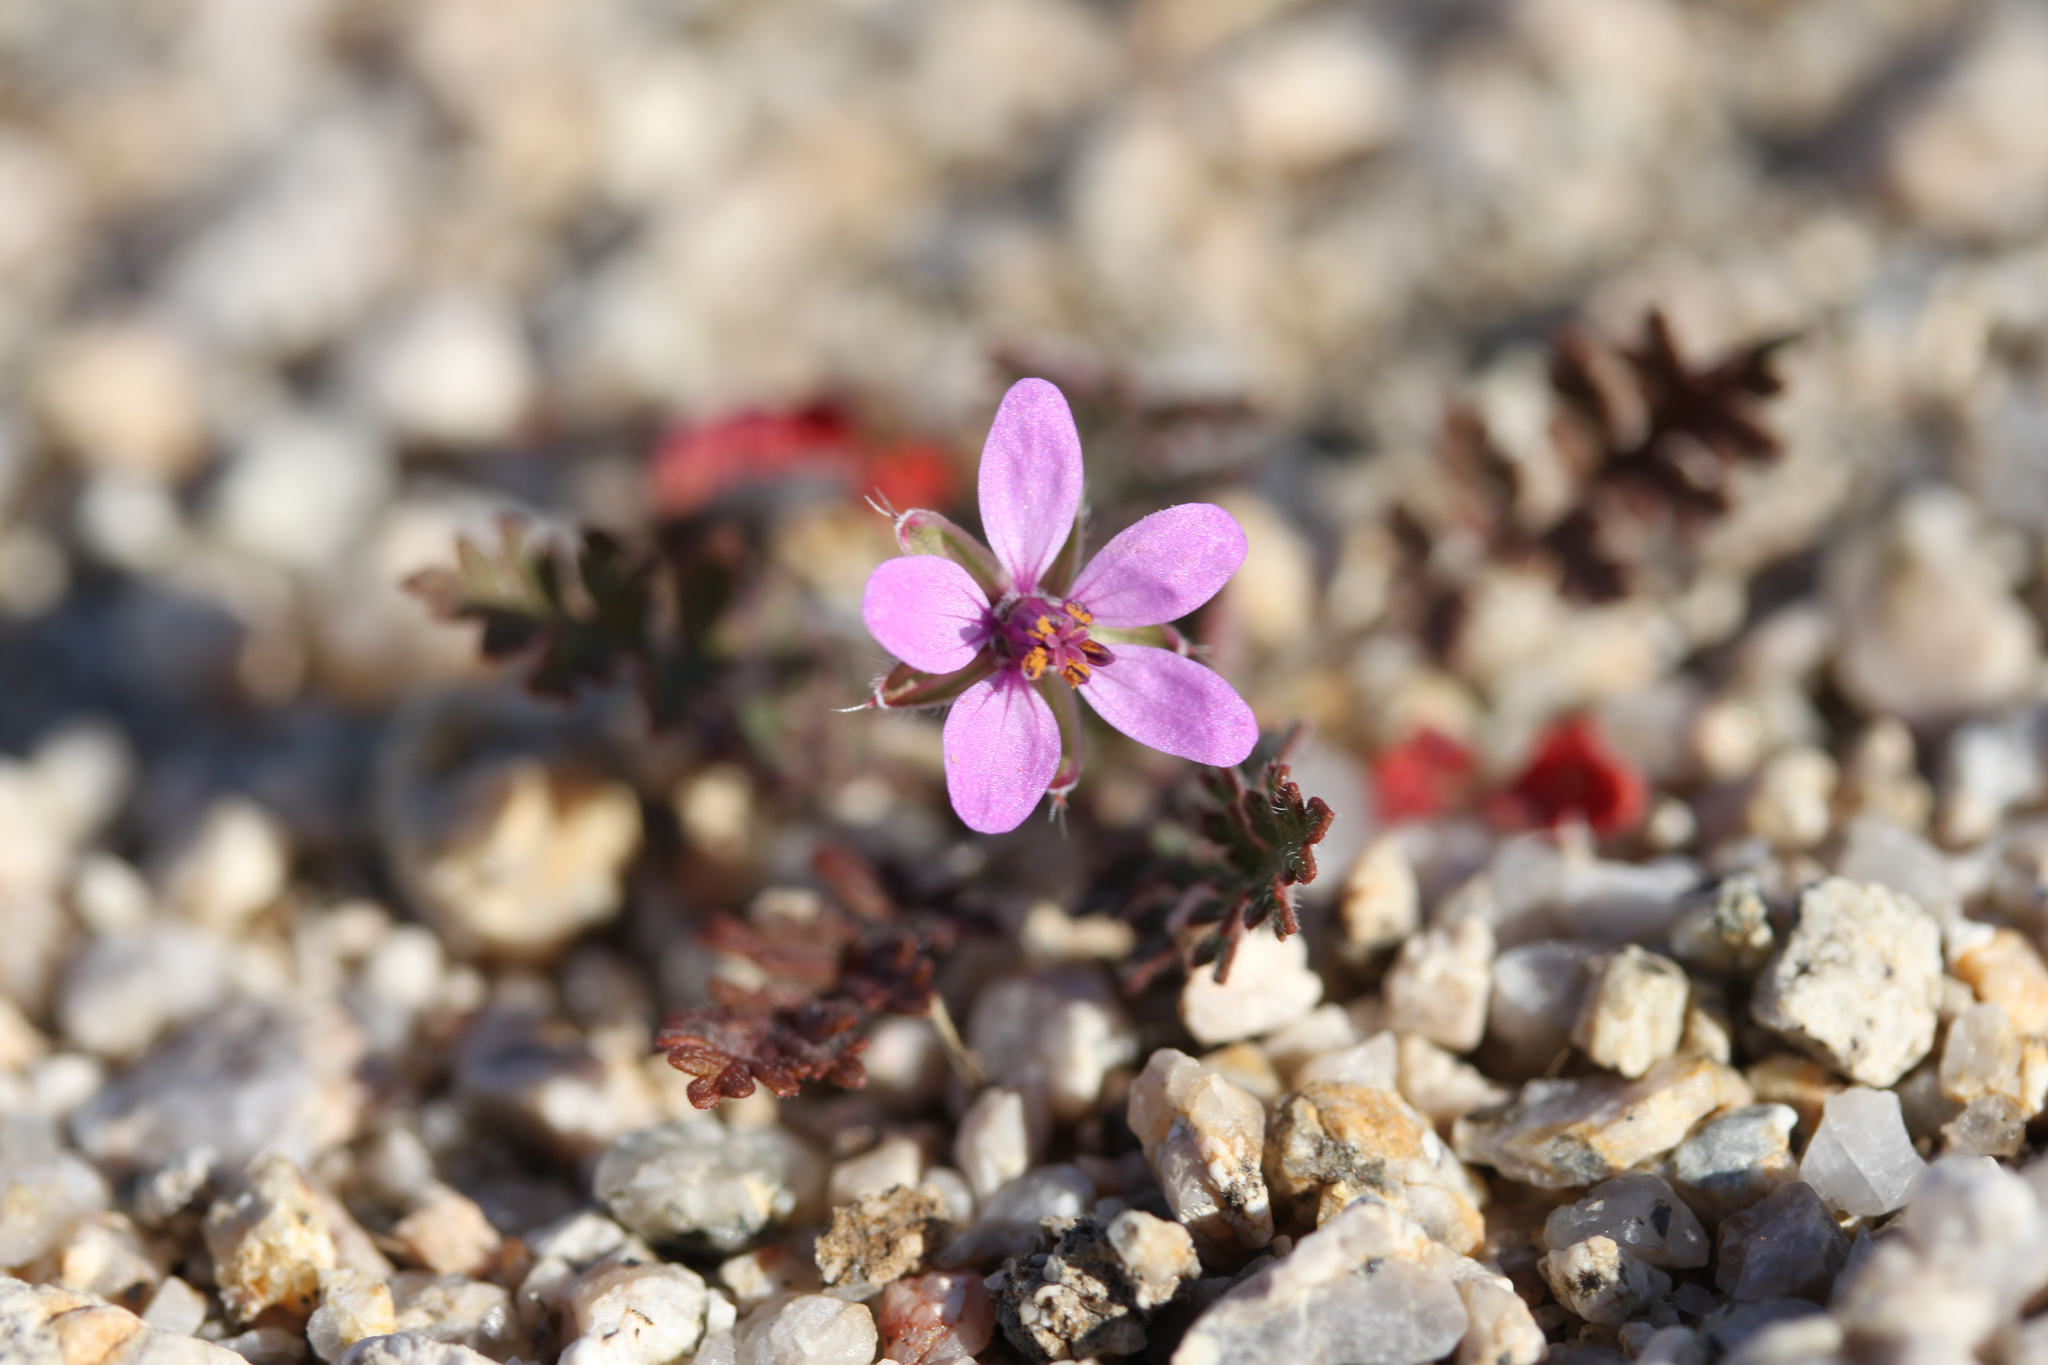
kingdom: Plantae
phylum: Tracheophyta
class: Magnoliopsida
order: Geraniales
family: Geraniaceae
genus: Erodium
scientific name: Erodium cicutarium
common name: Common stork's-bill
